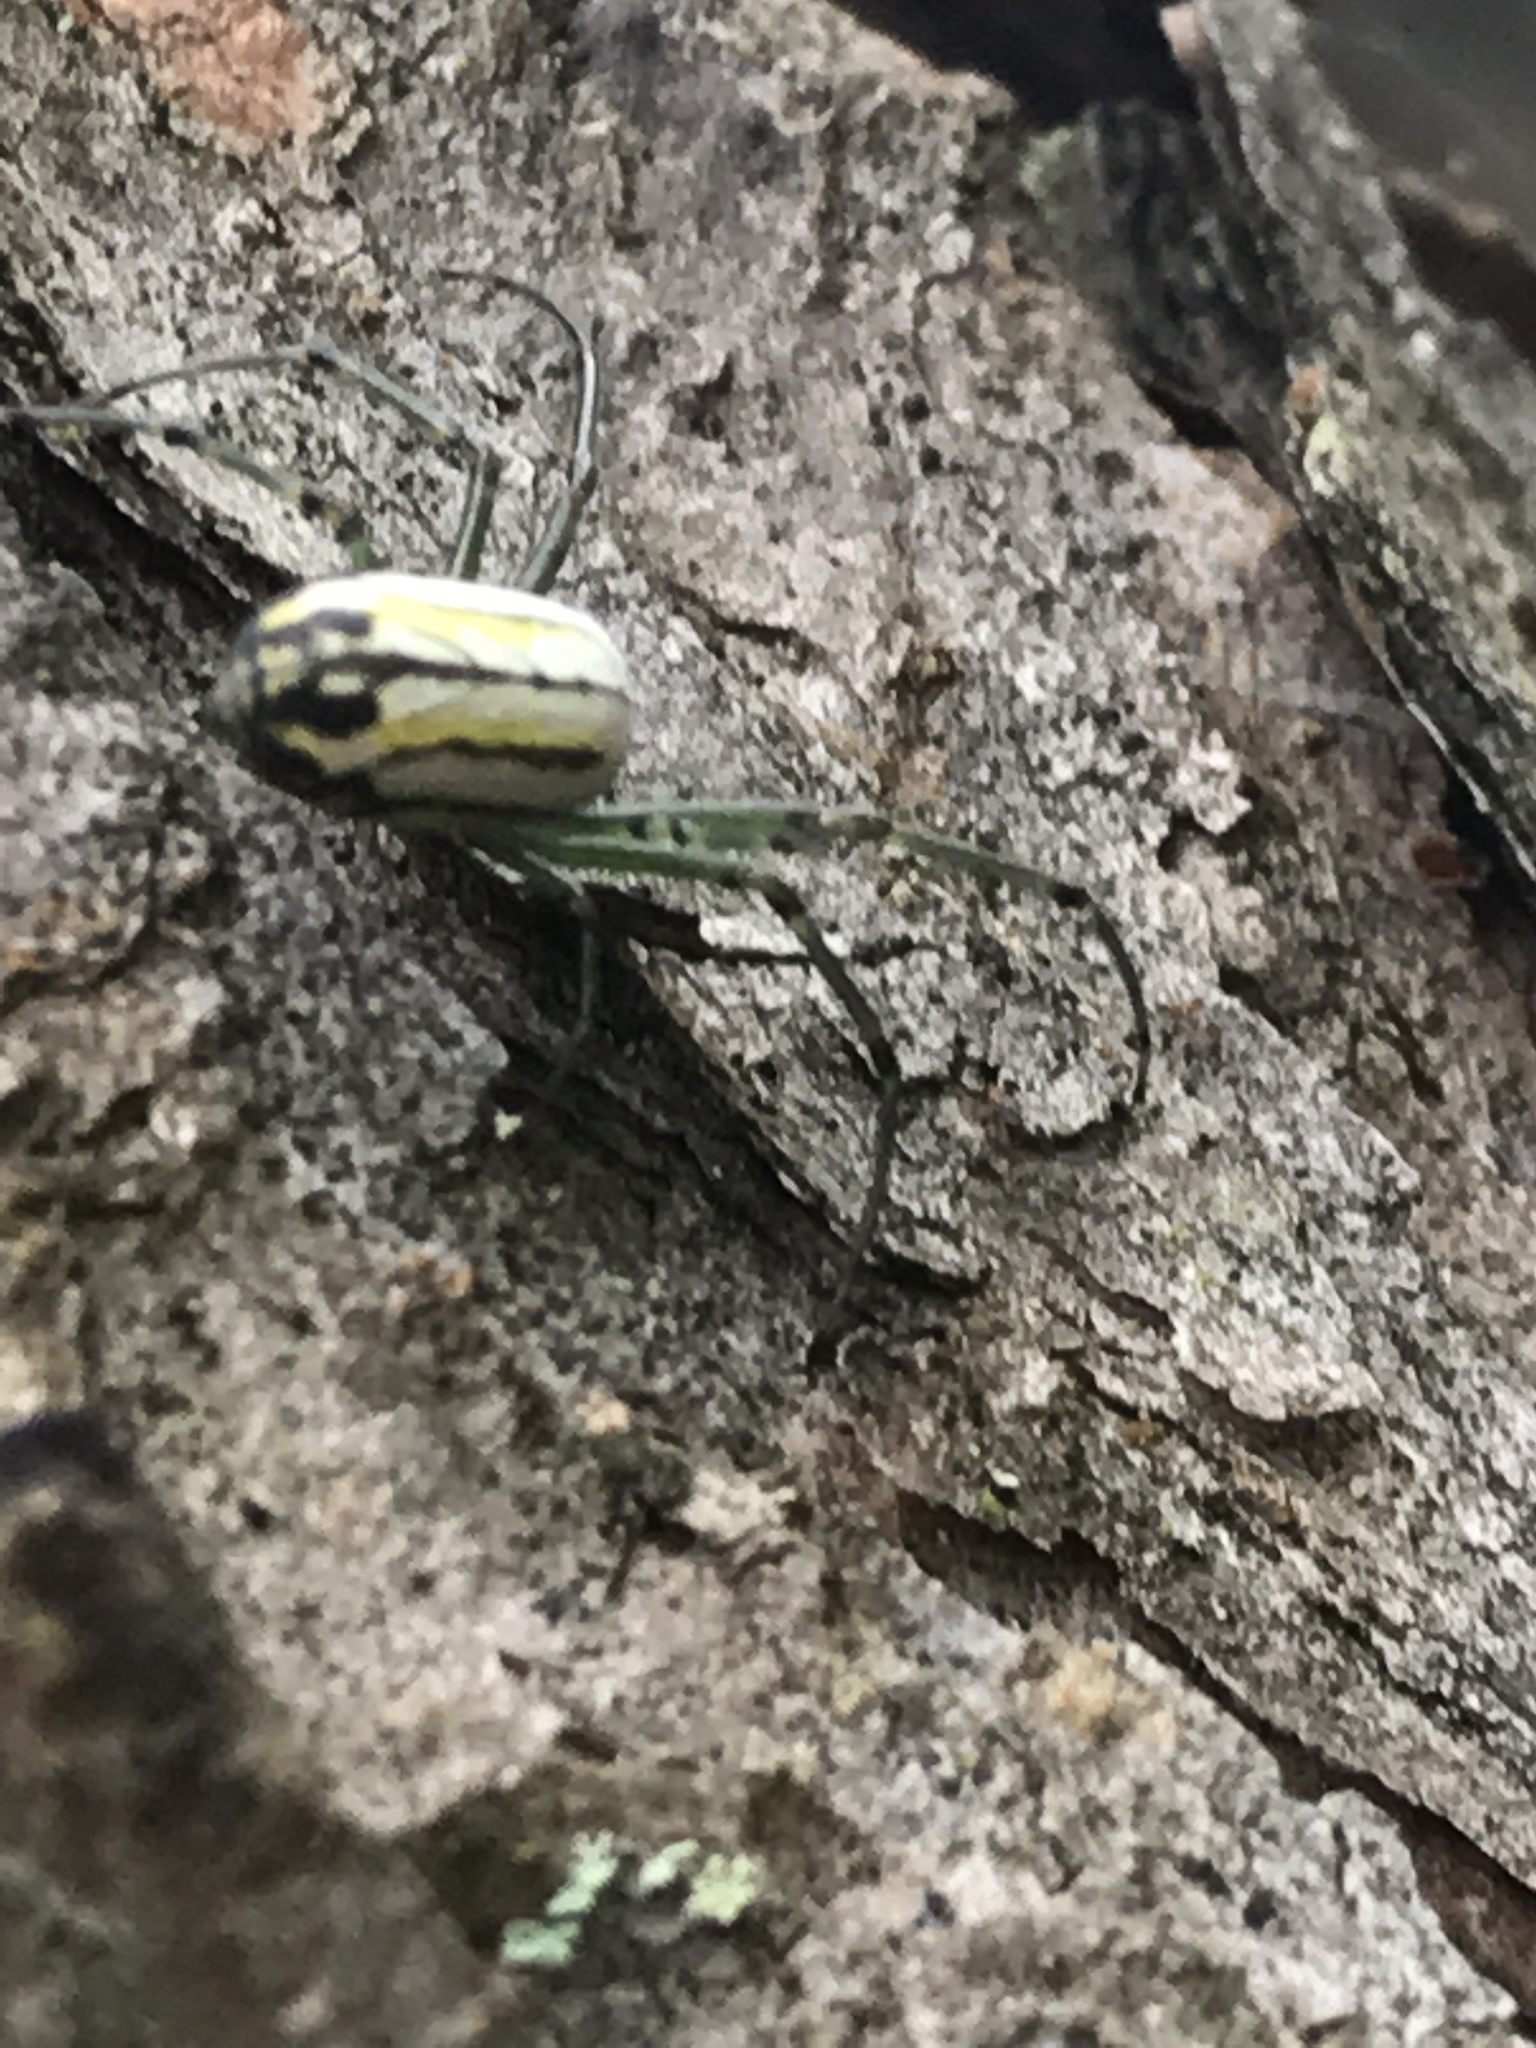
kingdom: Animalia
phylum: Arthropoda
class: Arachnida
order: Araneae
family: Tetragnathidae
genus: Leucauge
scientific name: Leucauge venusta
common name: Longjawed orb weavers
